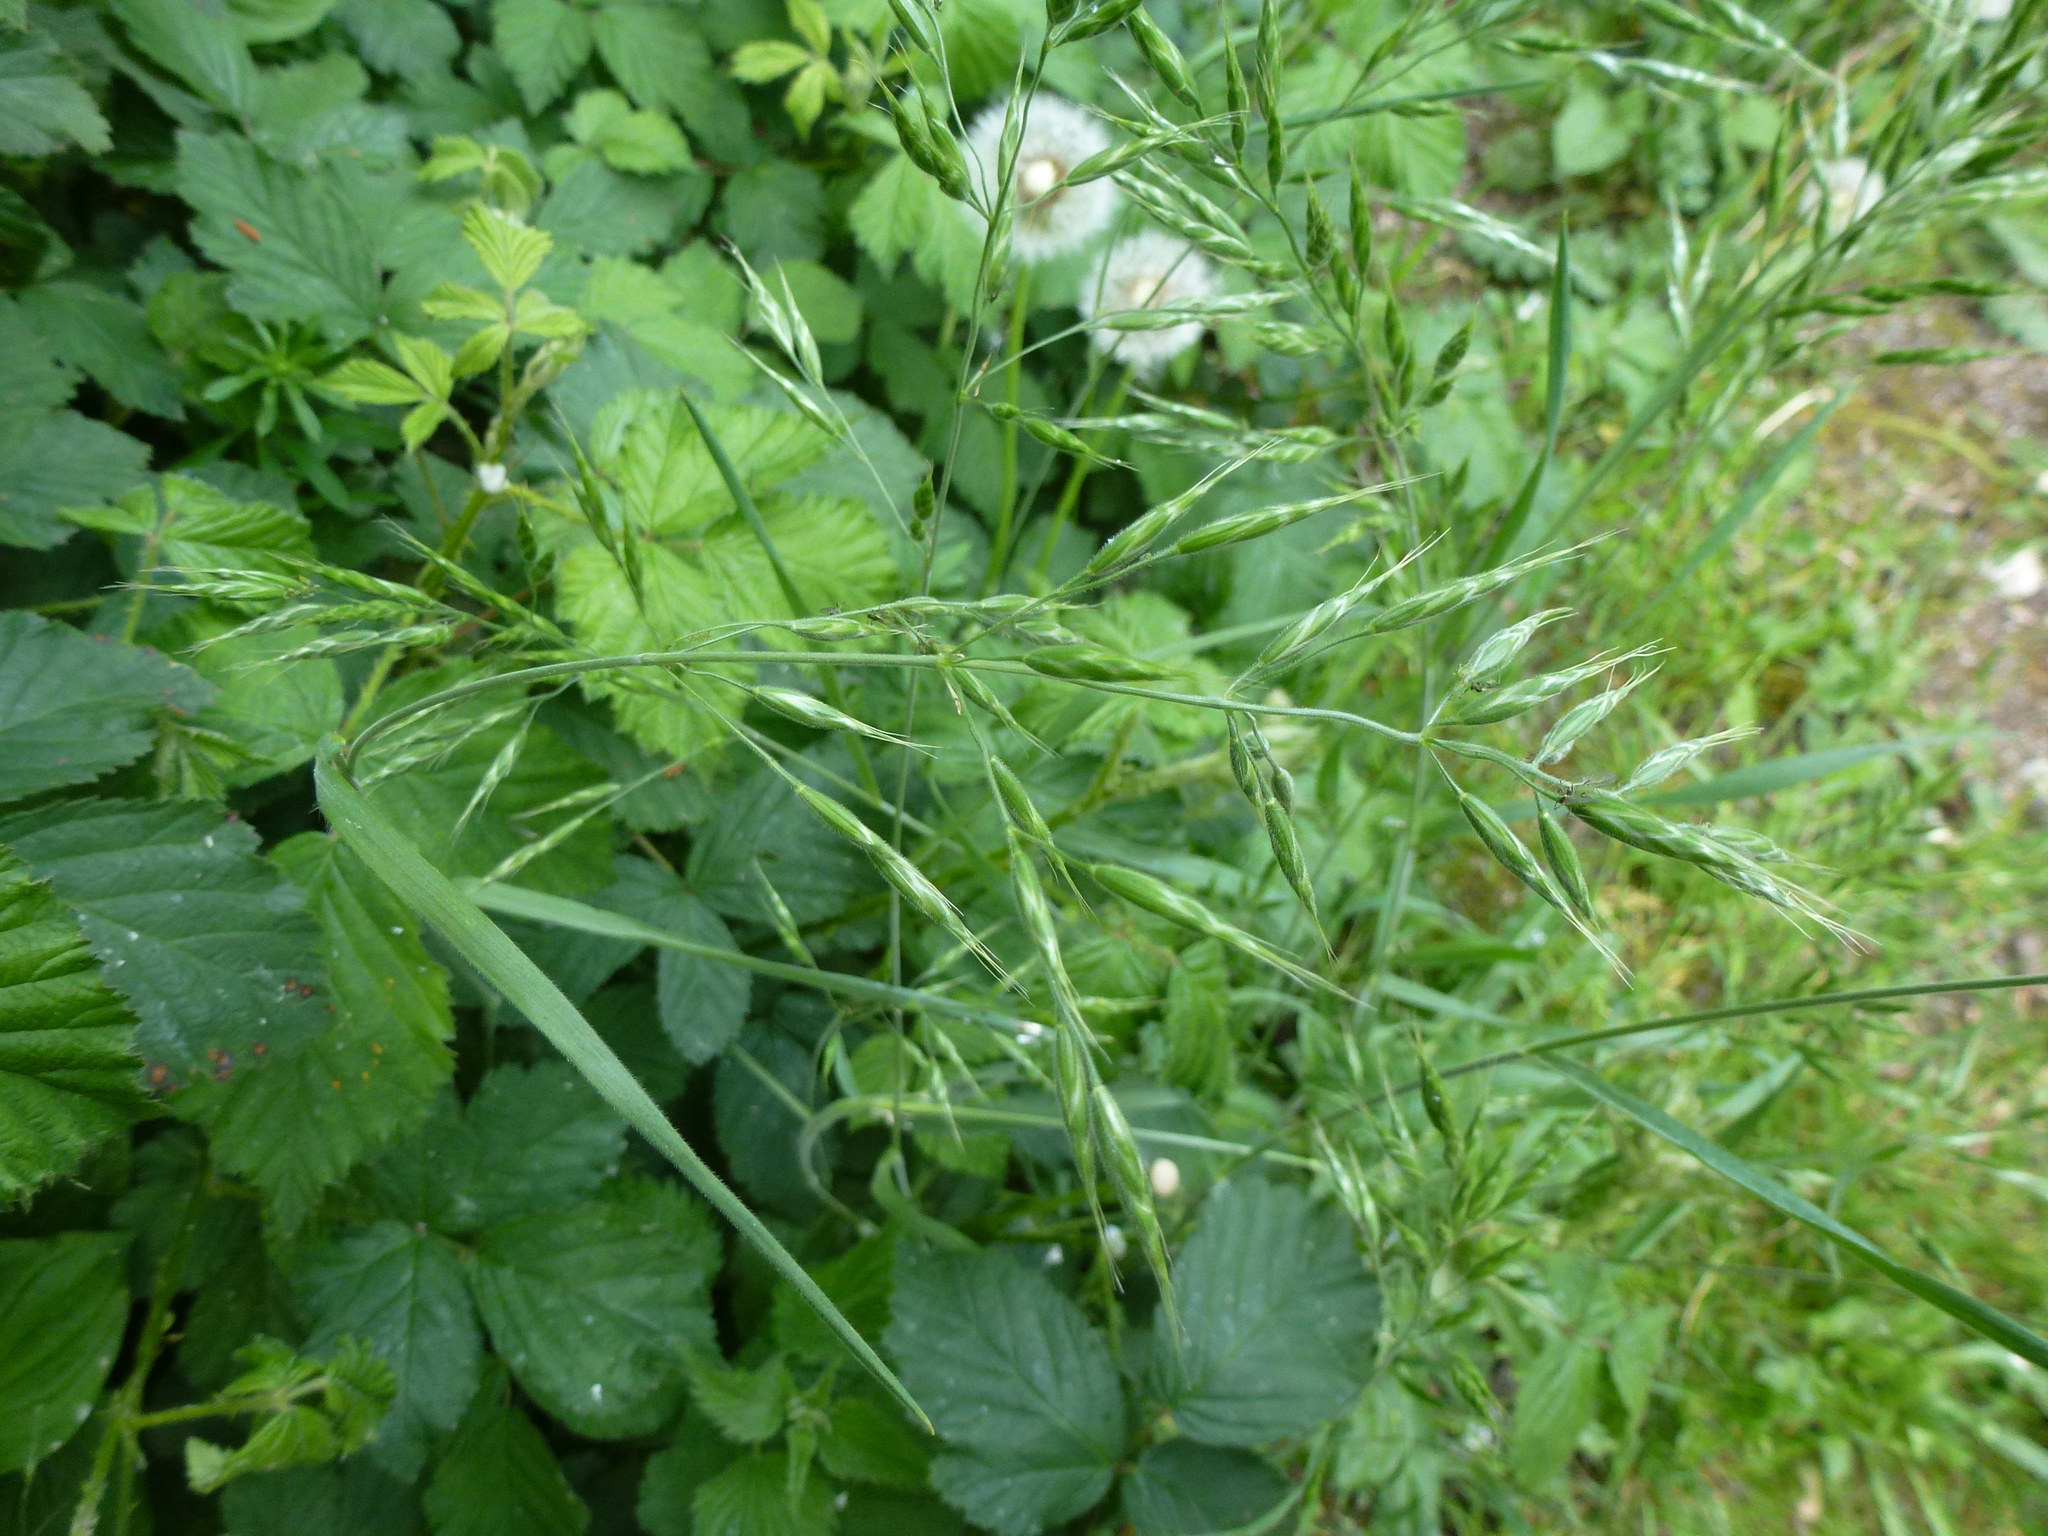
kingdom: Plantae
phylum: Tracheophyta
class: Liliopsida
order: Poales
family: Poaceae
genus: Bromus
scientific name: Bromus hordeaceus
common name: Soft brome
